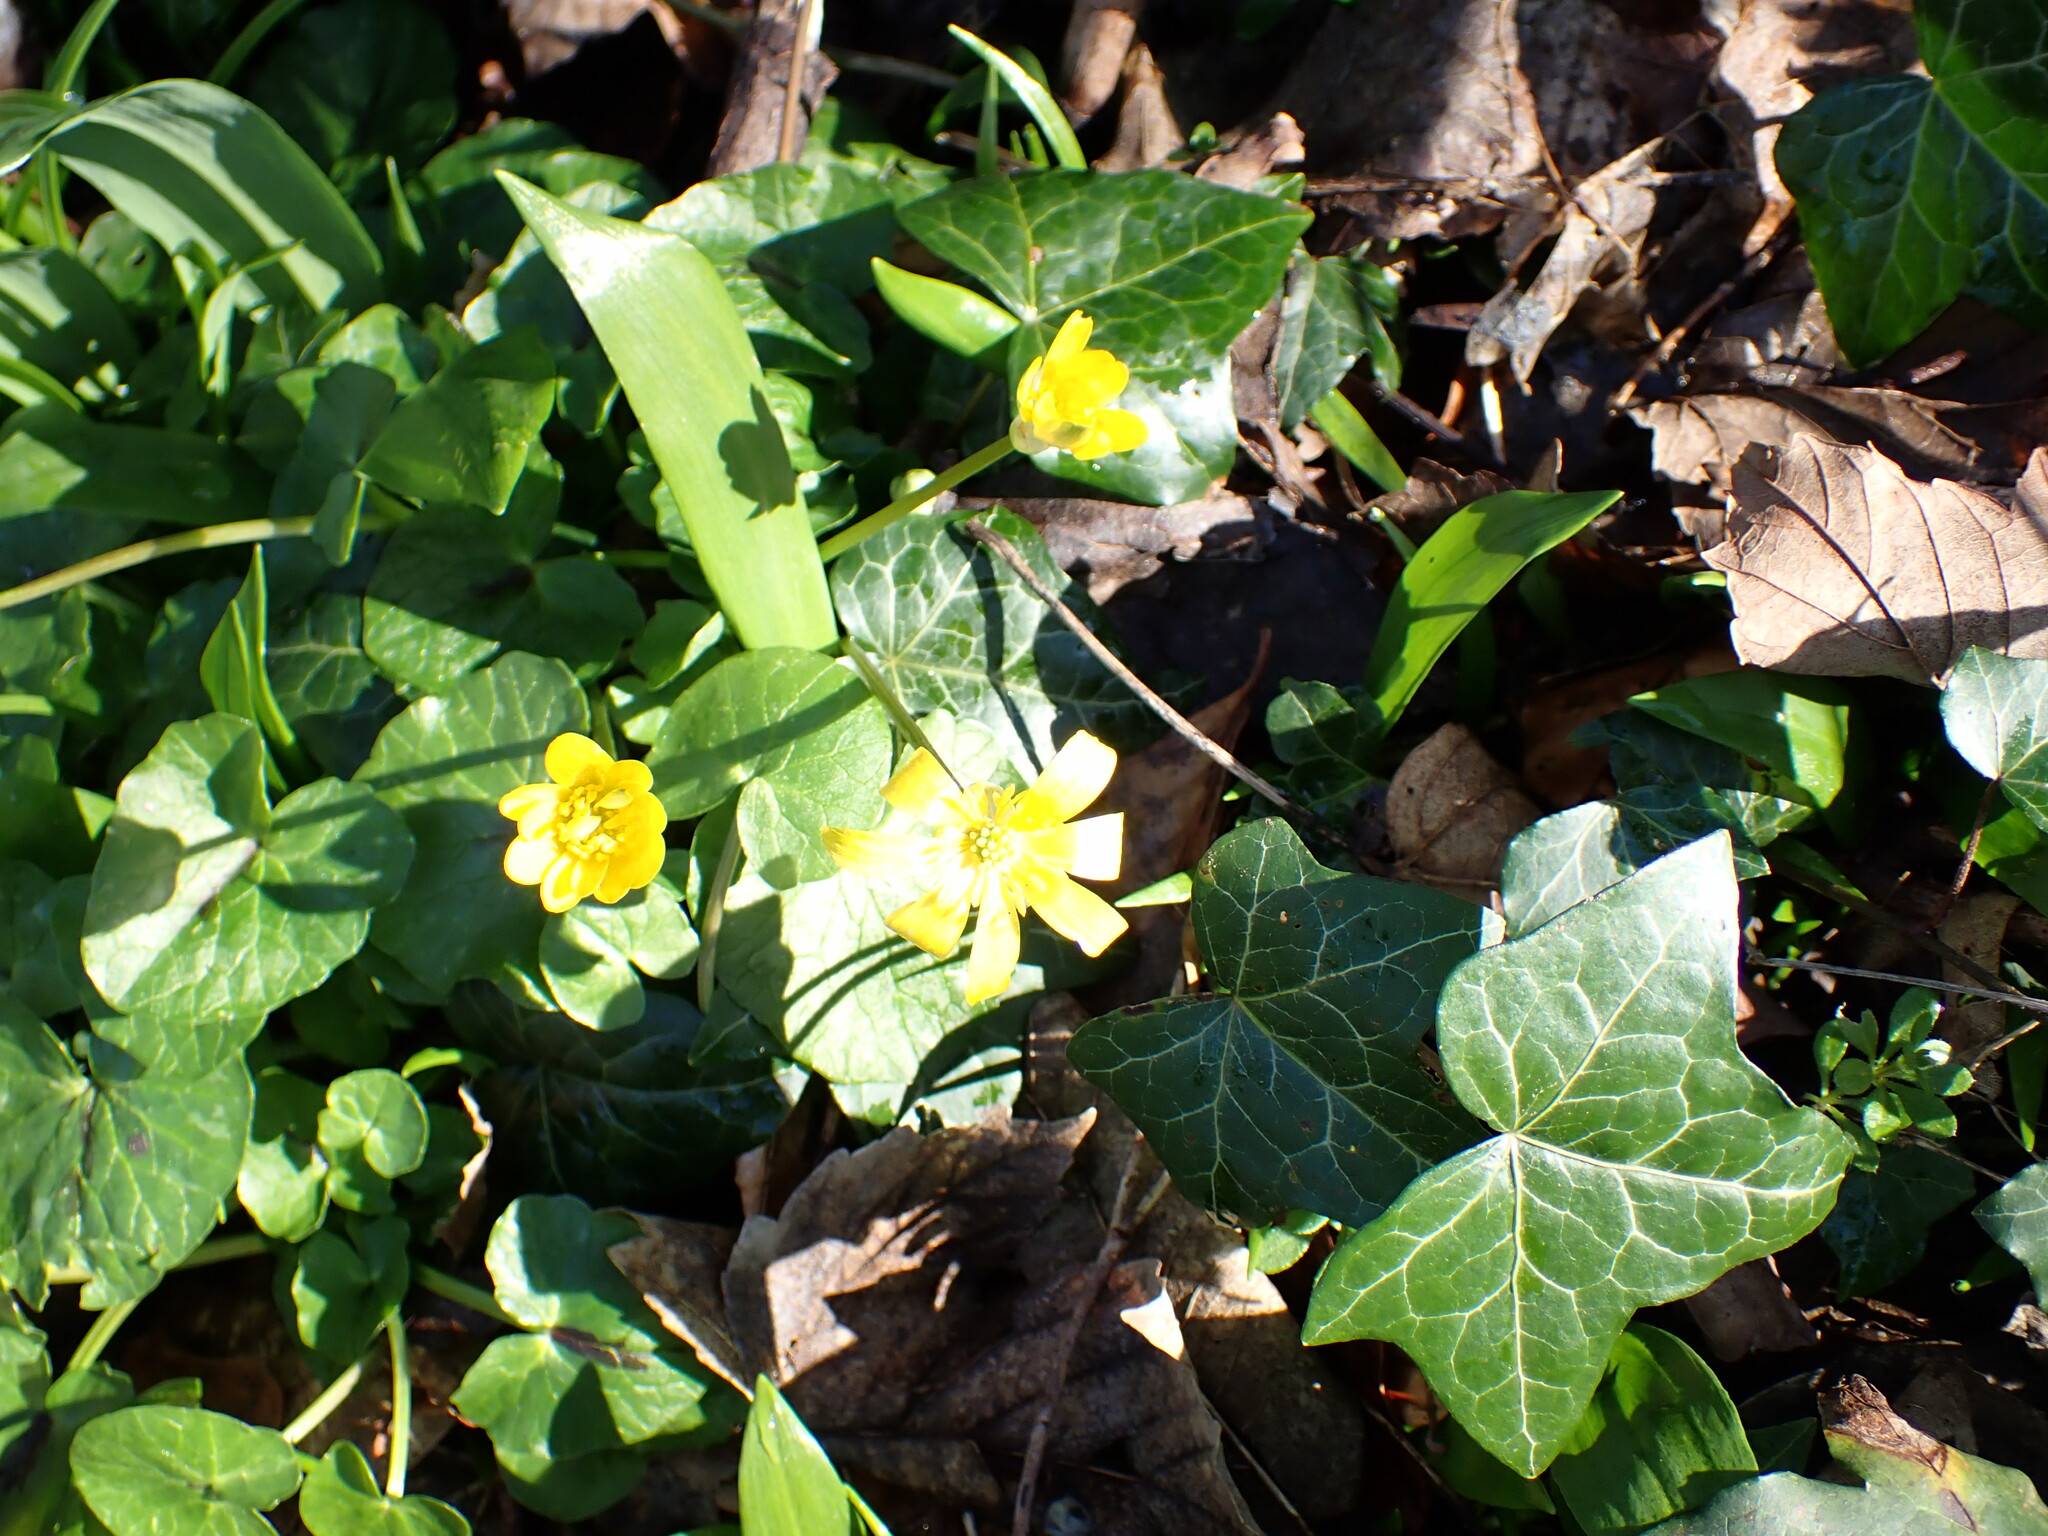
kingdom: Plantae
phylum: Tracheophyta
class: Magnoliopsida
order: Ranunculales
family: Ranunculaceae
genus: Ficaria
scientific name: Ficaria verna
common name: Lesser celandine
